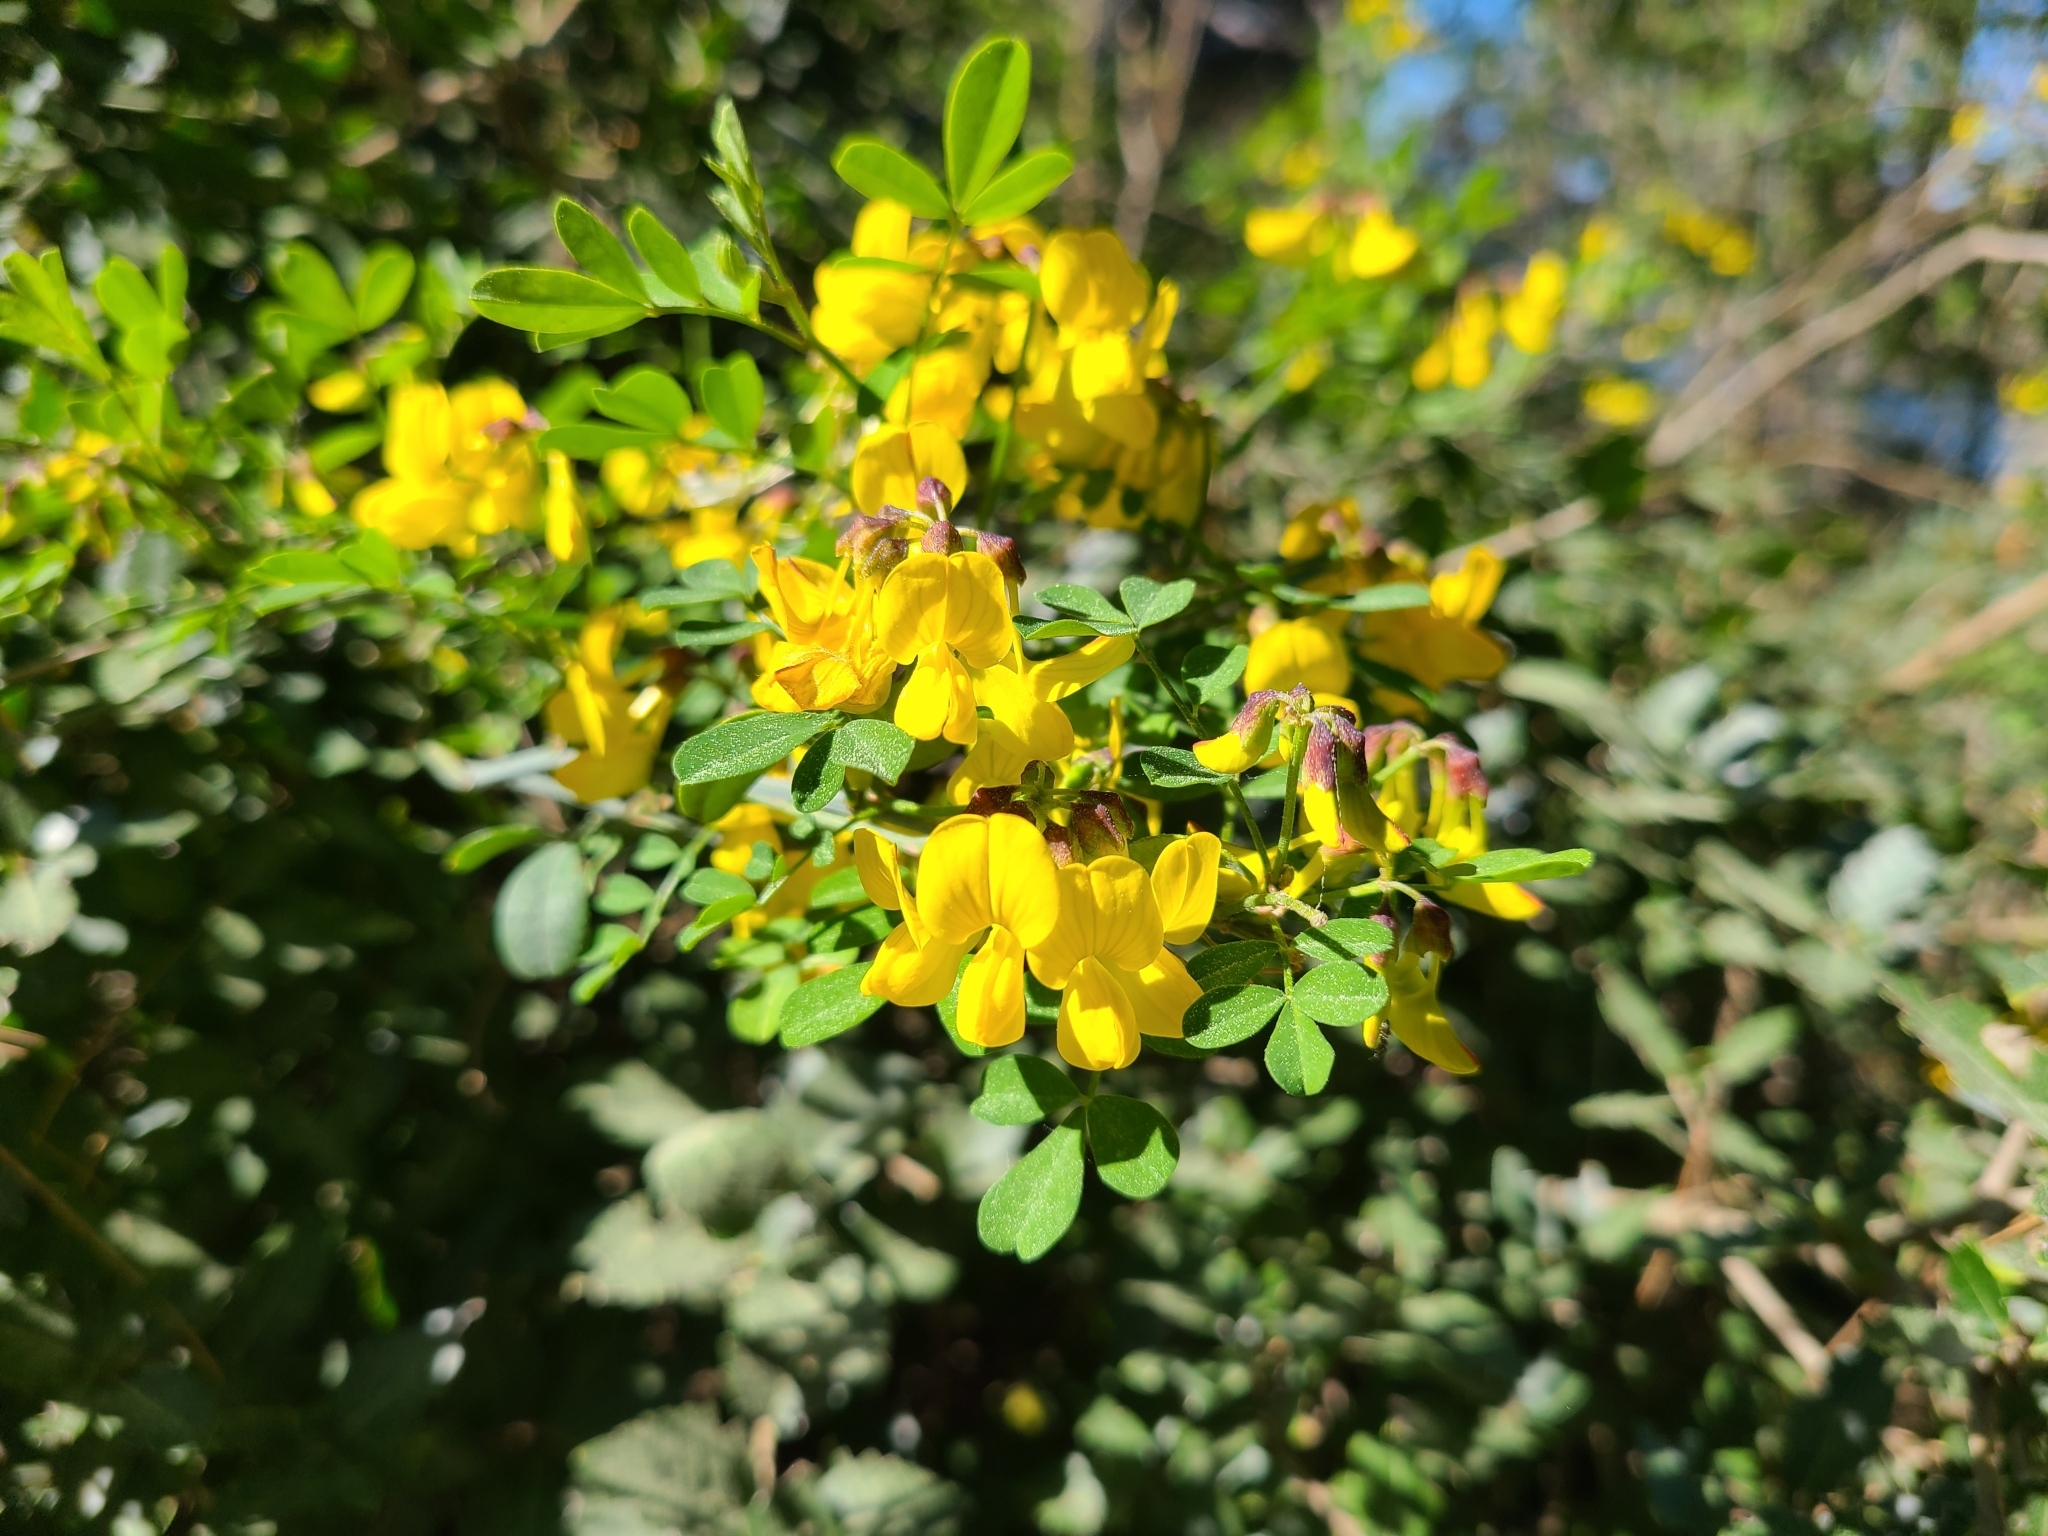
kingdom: Plantae
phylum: Tracheophyta
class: Magnoliopsida
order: Fabales
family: Fabaceae
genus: Hippocrepis
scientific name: Hippocrepis emerus
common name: Scorpion senna
